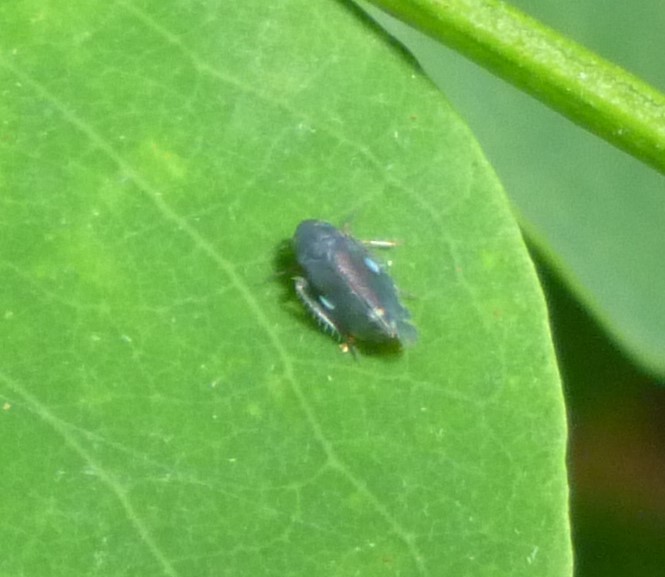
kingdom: Animalia
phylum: Arthropoda
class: Insecta
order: Hemiptera
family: Cicadellidae
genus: Xestocephalus
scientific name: Xestocephalus brunneus
